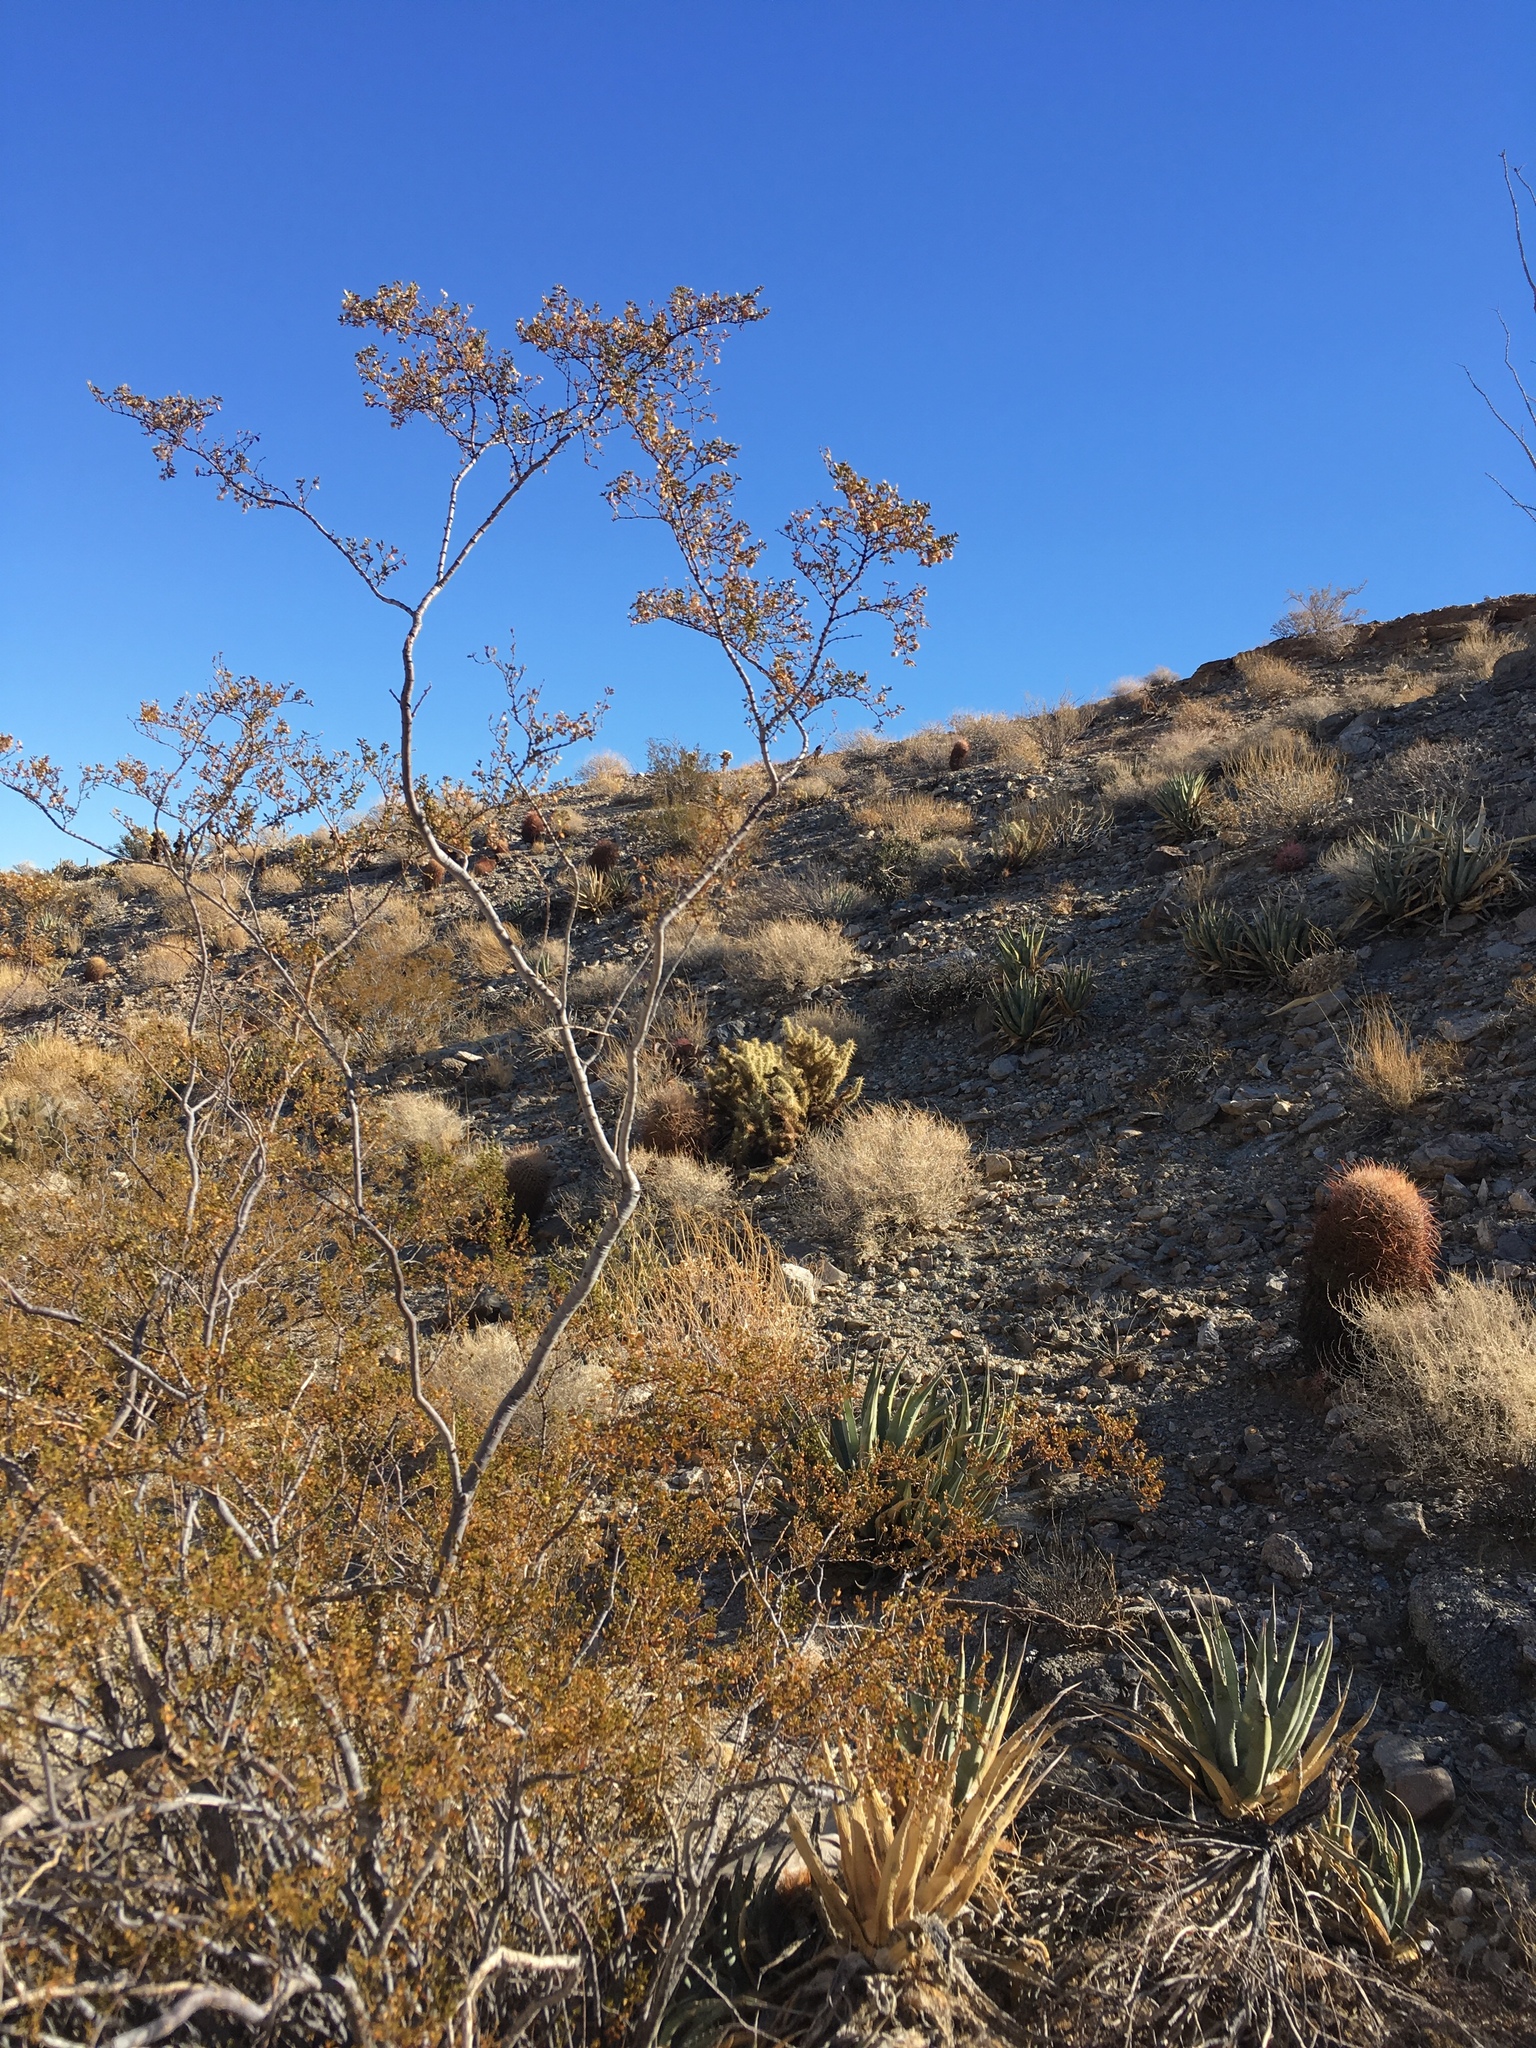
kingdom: Plantae
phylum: Tracheophyta
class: Magnoliopsida
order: Zygophyllales
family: Zygophyllaceae
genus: Larrea
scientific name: Larrea tridentata
